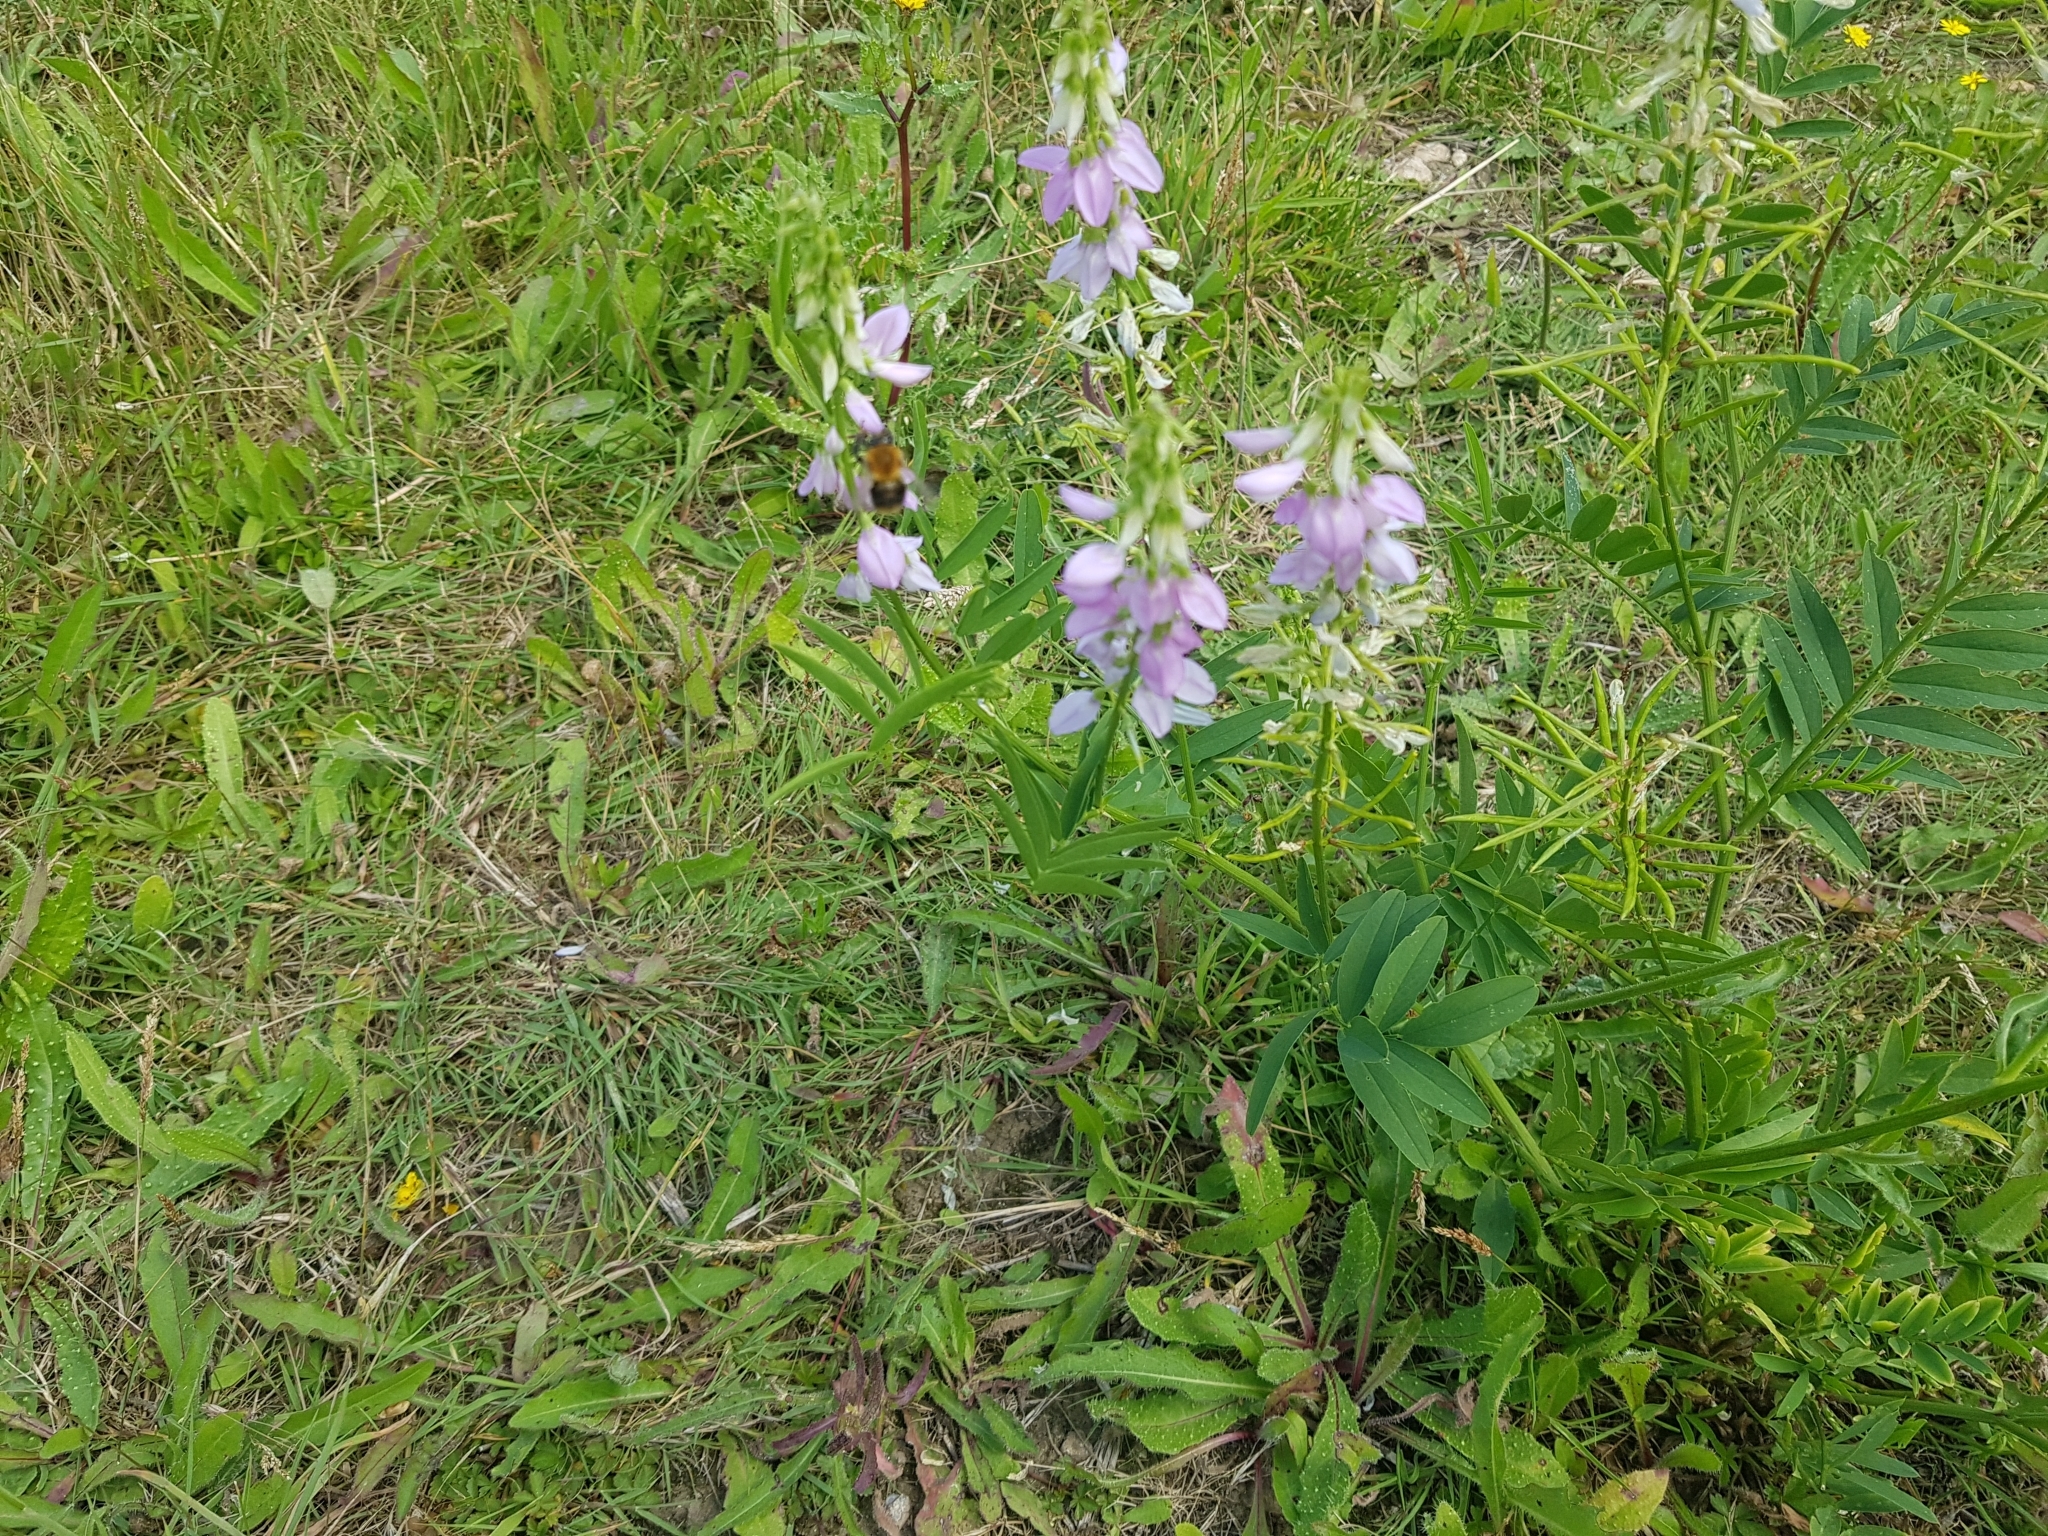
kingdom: Plantae
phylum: Tracheophyta
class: Magnoliopsida
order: Fabales
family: Fabaceae
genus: Galega
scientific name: Galega officinalis
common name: Goat's-rue
